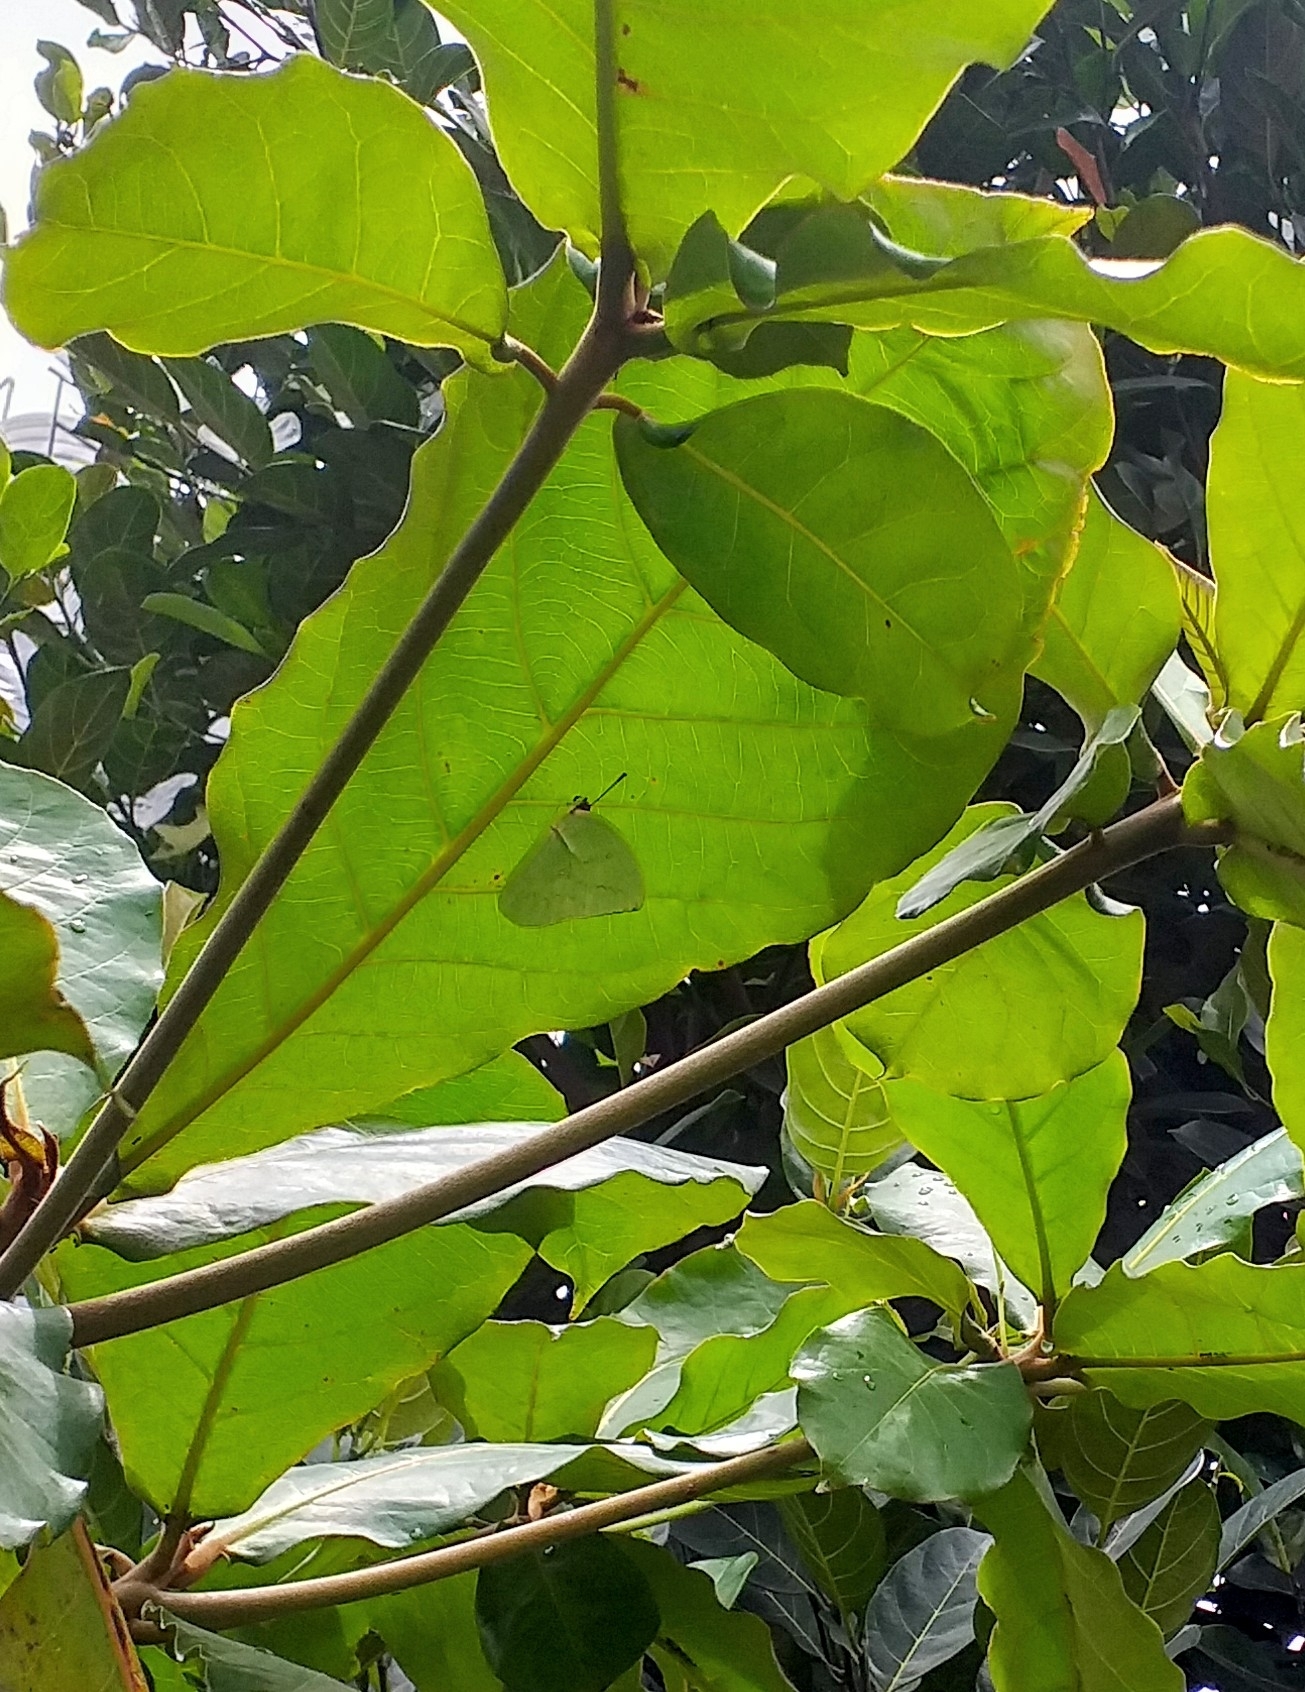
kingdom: Animalia
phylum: Arthropoda
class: Insecta
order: Lepidoptera
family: Pieridae
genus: Catopsilia
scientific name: Catopsilia pomona
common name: Common emigrant
